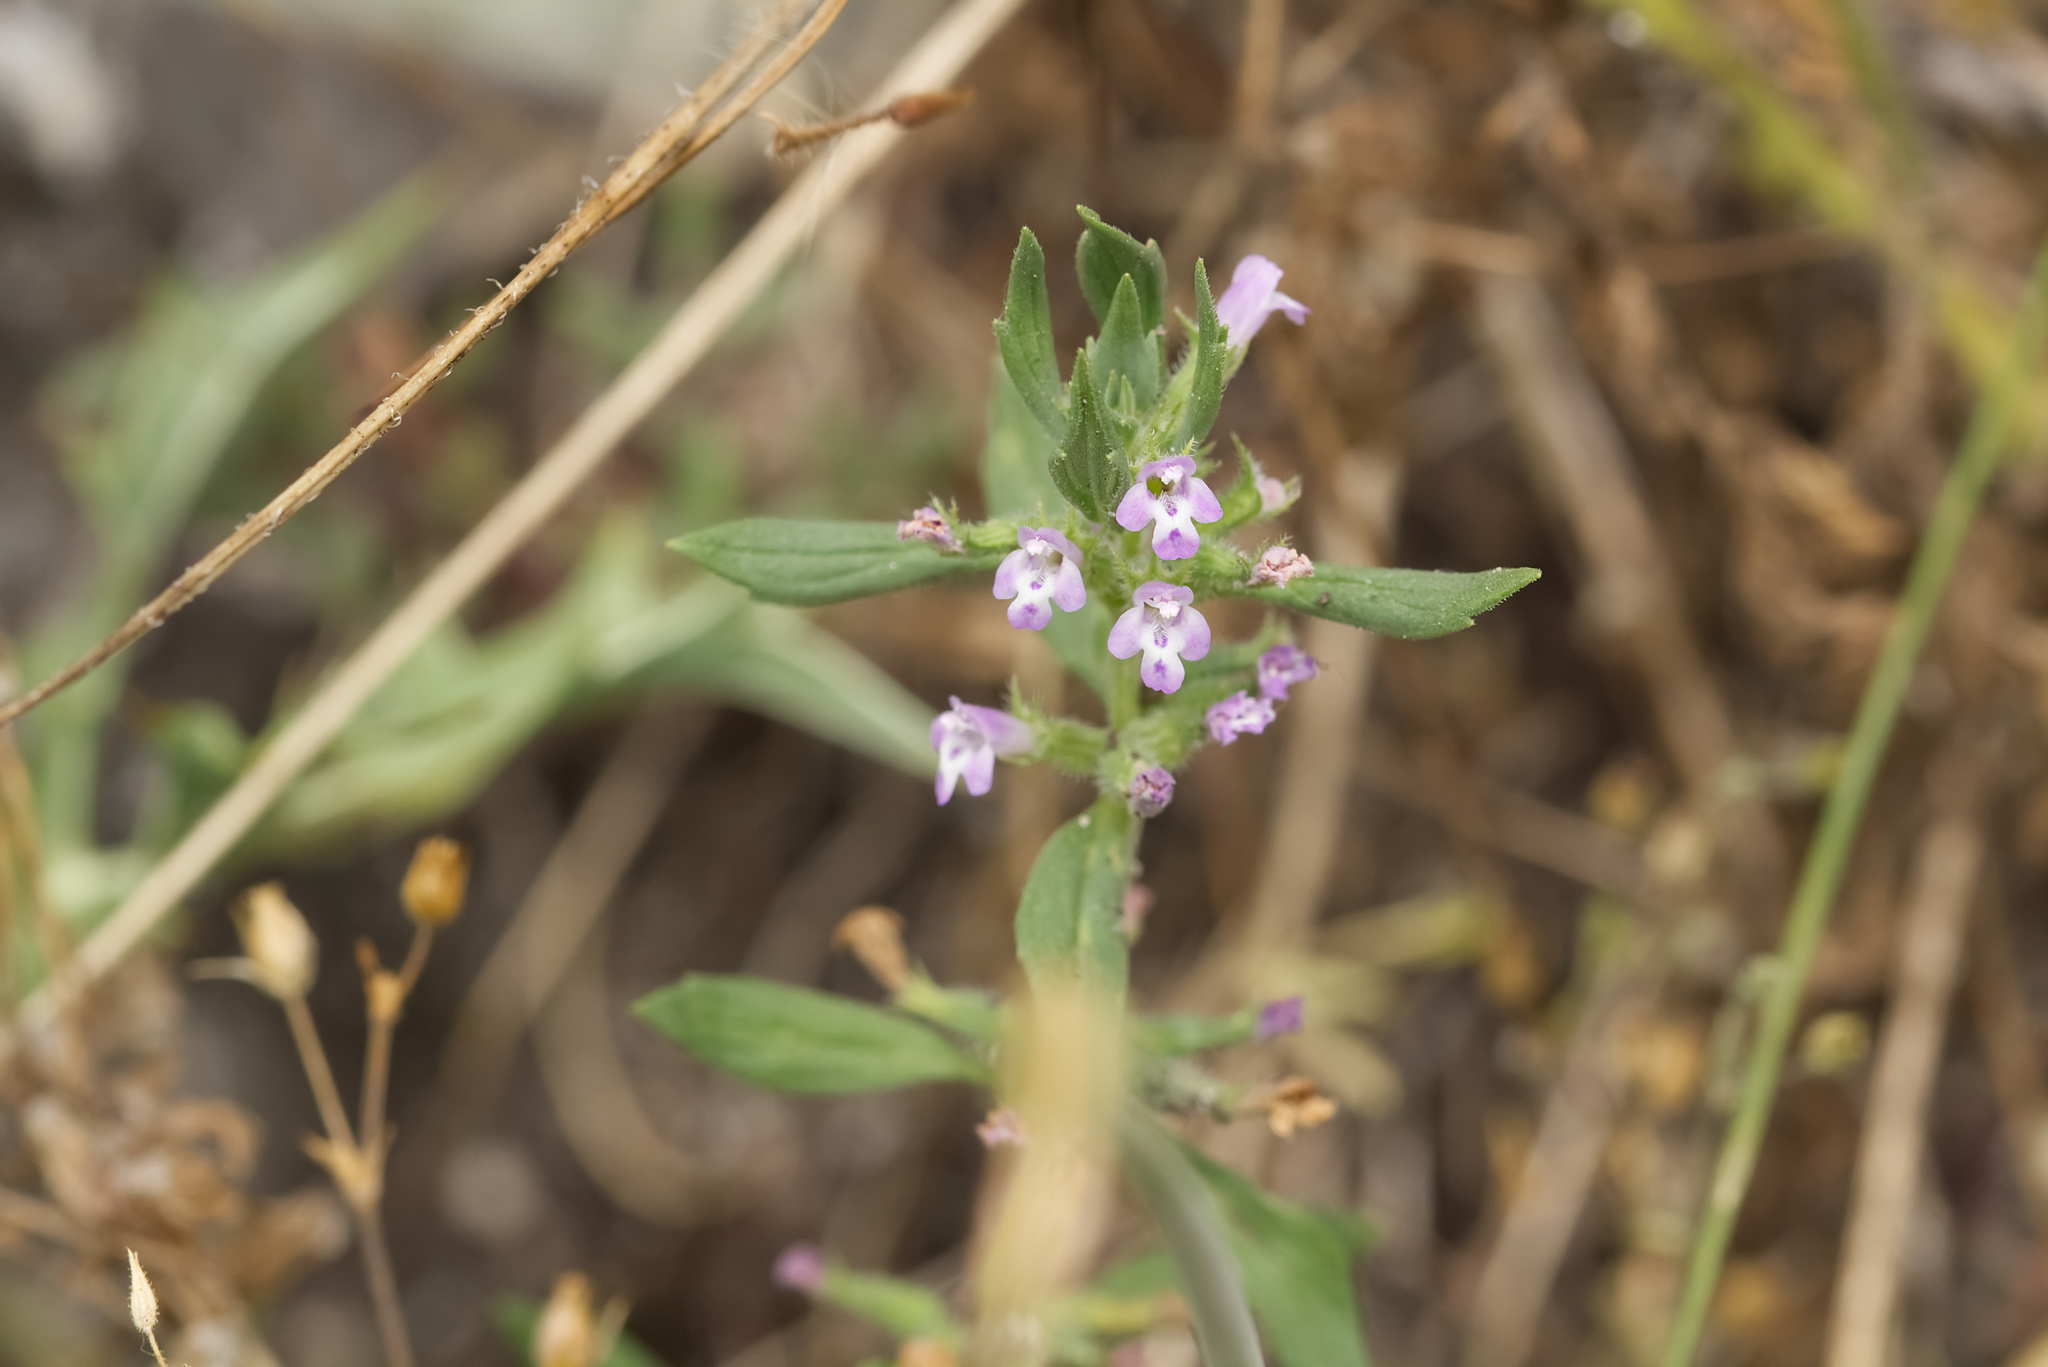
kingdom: Plantae
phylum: Tracheophyta
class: Magnoliopsida
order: Lamiales
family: Lamiaceae
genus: Clinopodium
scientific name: Clinopodium acinos
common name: Basil thyme
